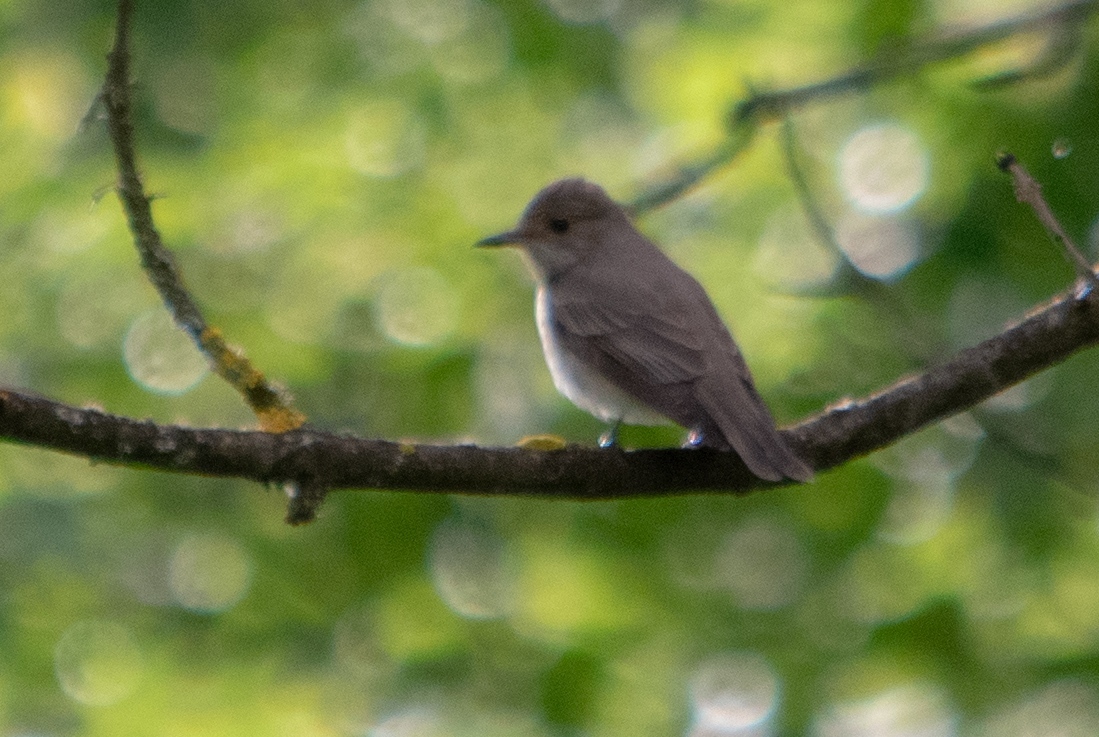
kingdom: Animalia
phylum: Chordata
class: Aves
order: Passeriformes
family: Muscicapidae
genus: Muscicapa
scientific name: Muscicapa striata
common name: Spotted flycatcher
